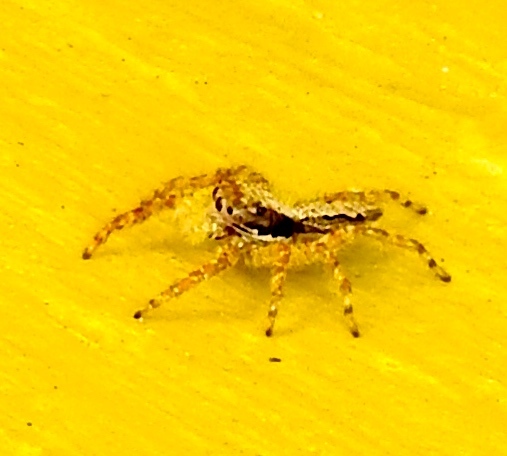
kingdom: Animalia
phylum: Arthropoda
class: Arachnida
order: Araneae
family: Salticidae
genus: Balmaceda
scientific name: Balmaceda
